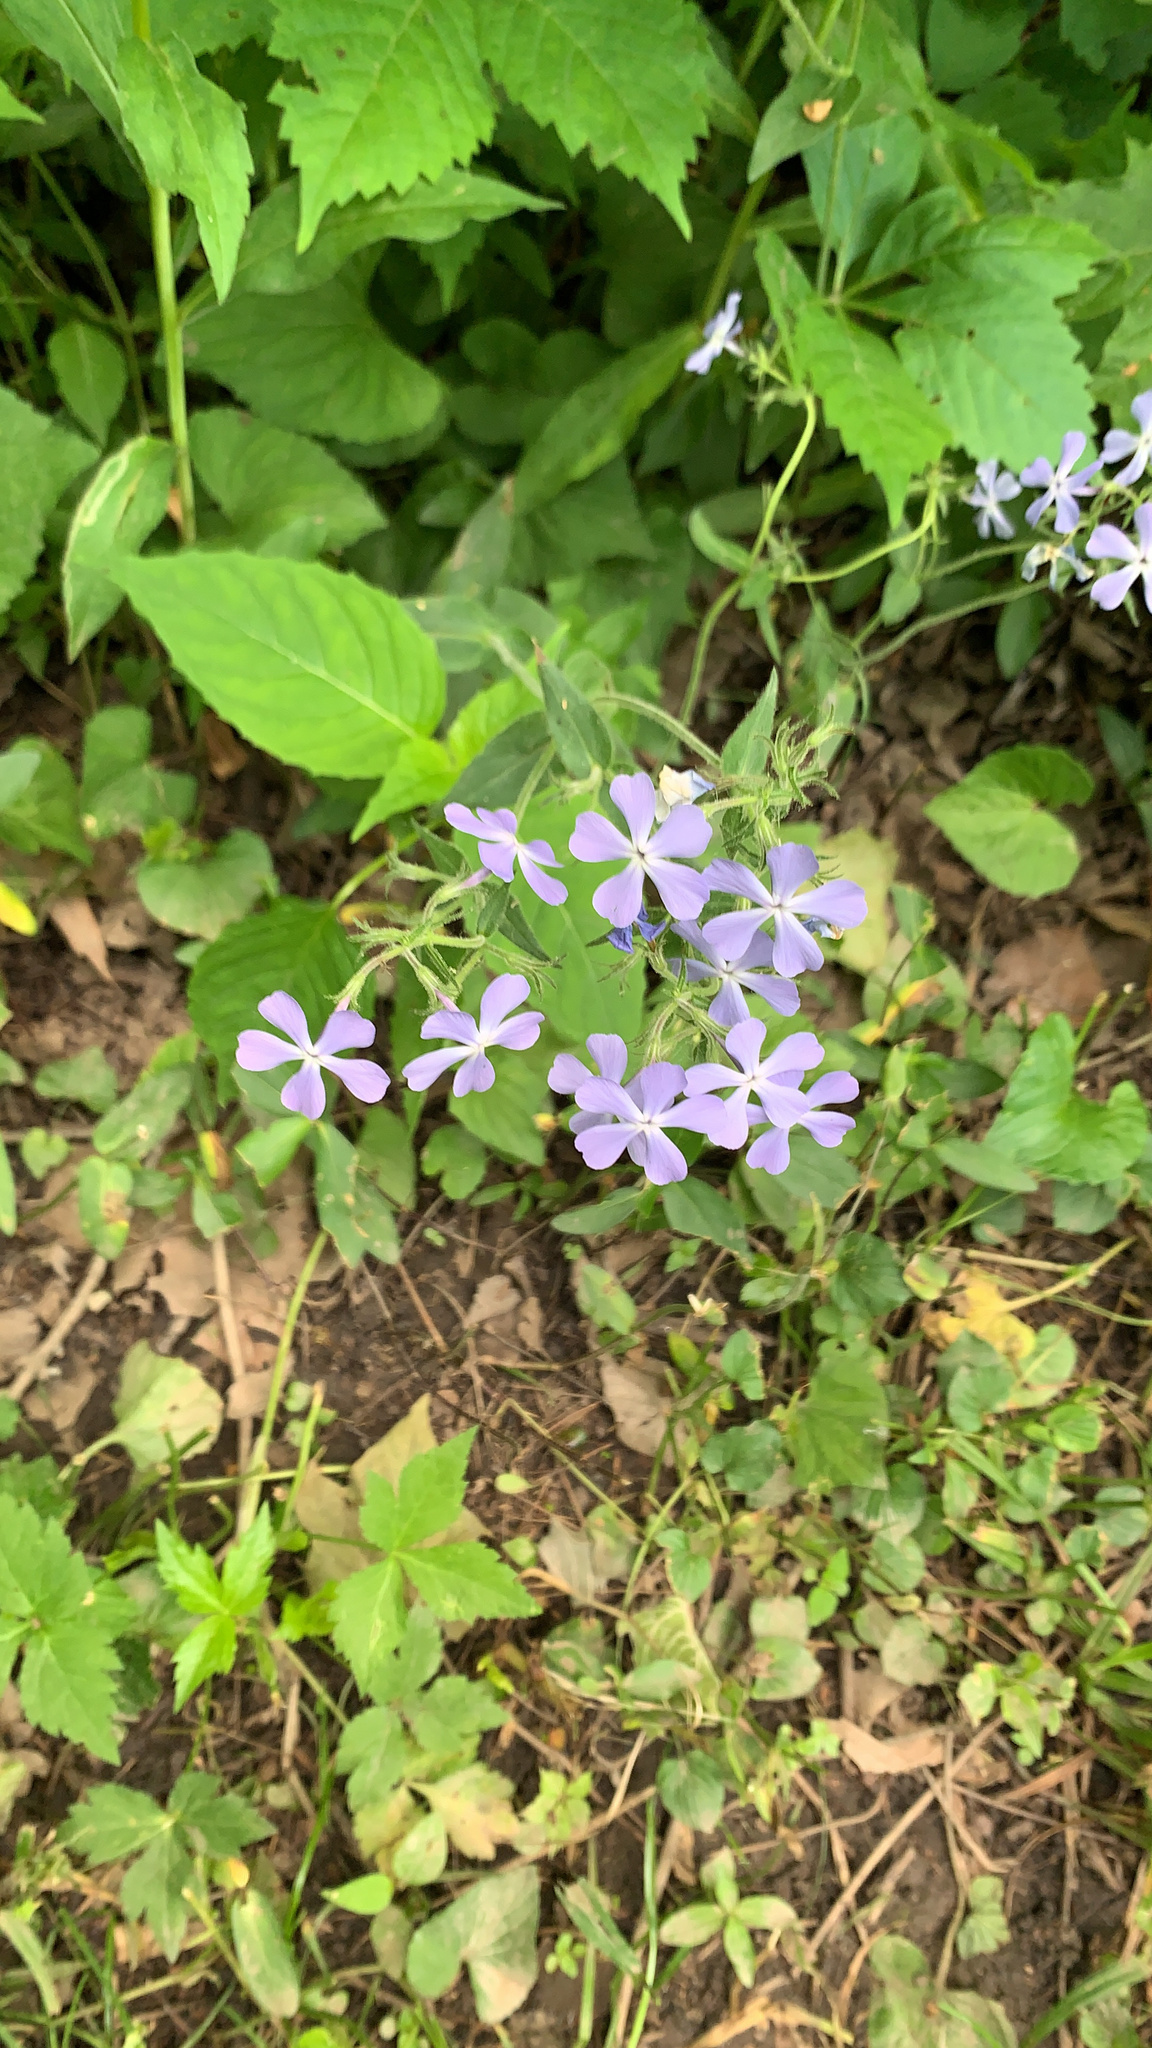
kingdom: Plantae
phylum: Tracheophyta
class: Magnoliopsida
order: Ericales
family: Polemoniaceae
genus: Phlox
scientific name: Phlox divaricata
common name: Blue phlox
